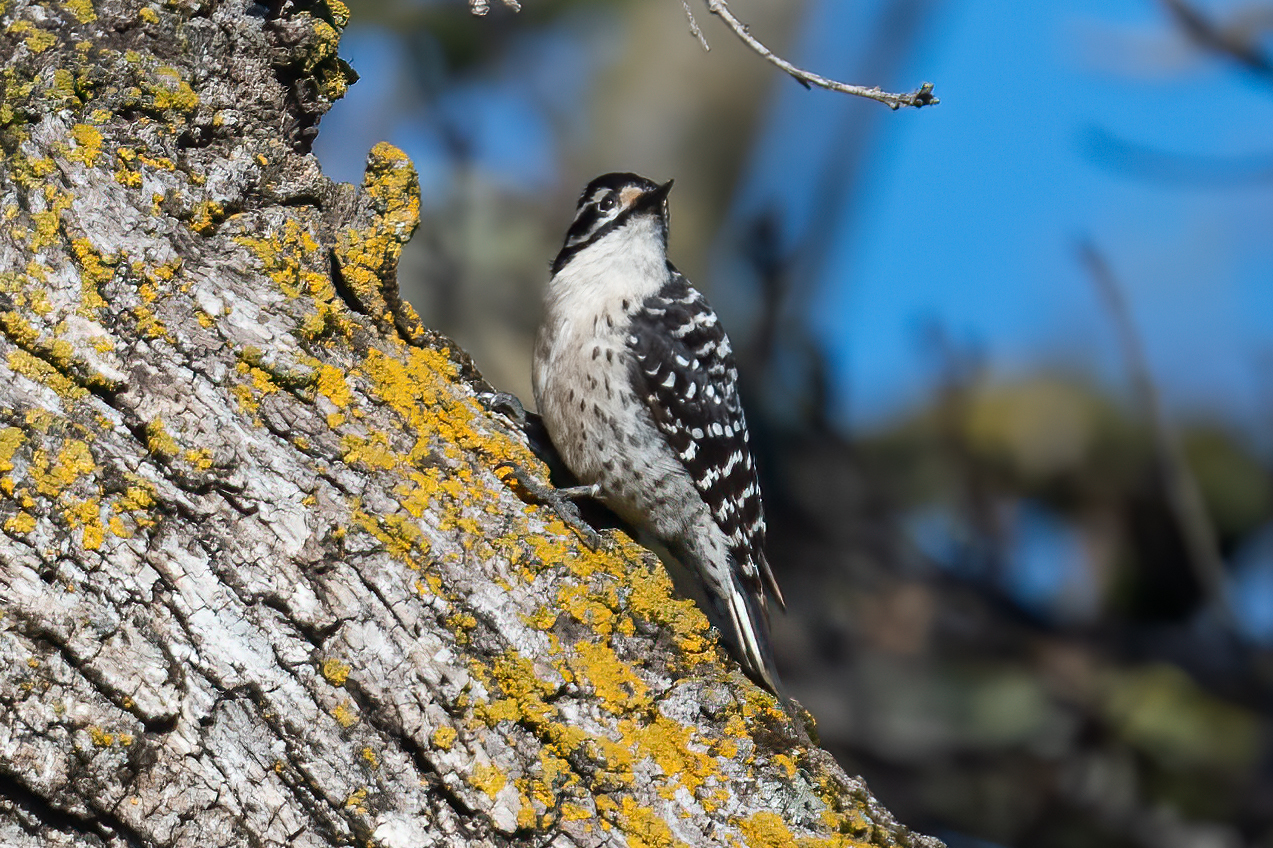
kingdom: Animalia
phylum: Chordata
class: Aves
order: Piciformes
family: Picidae
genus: Dryobates
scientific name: Dryobates nuttallii
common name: Nuttall's woodpecker
